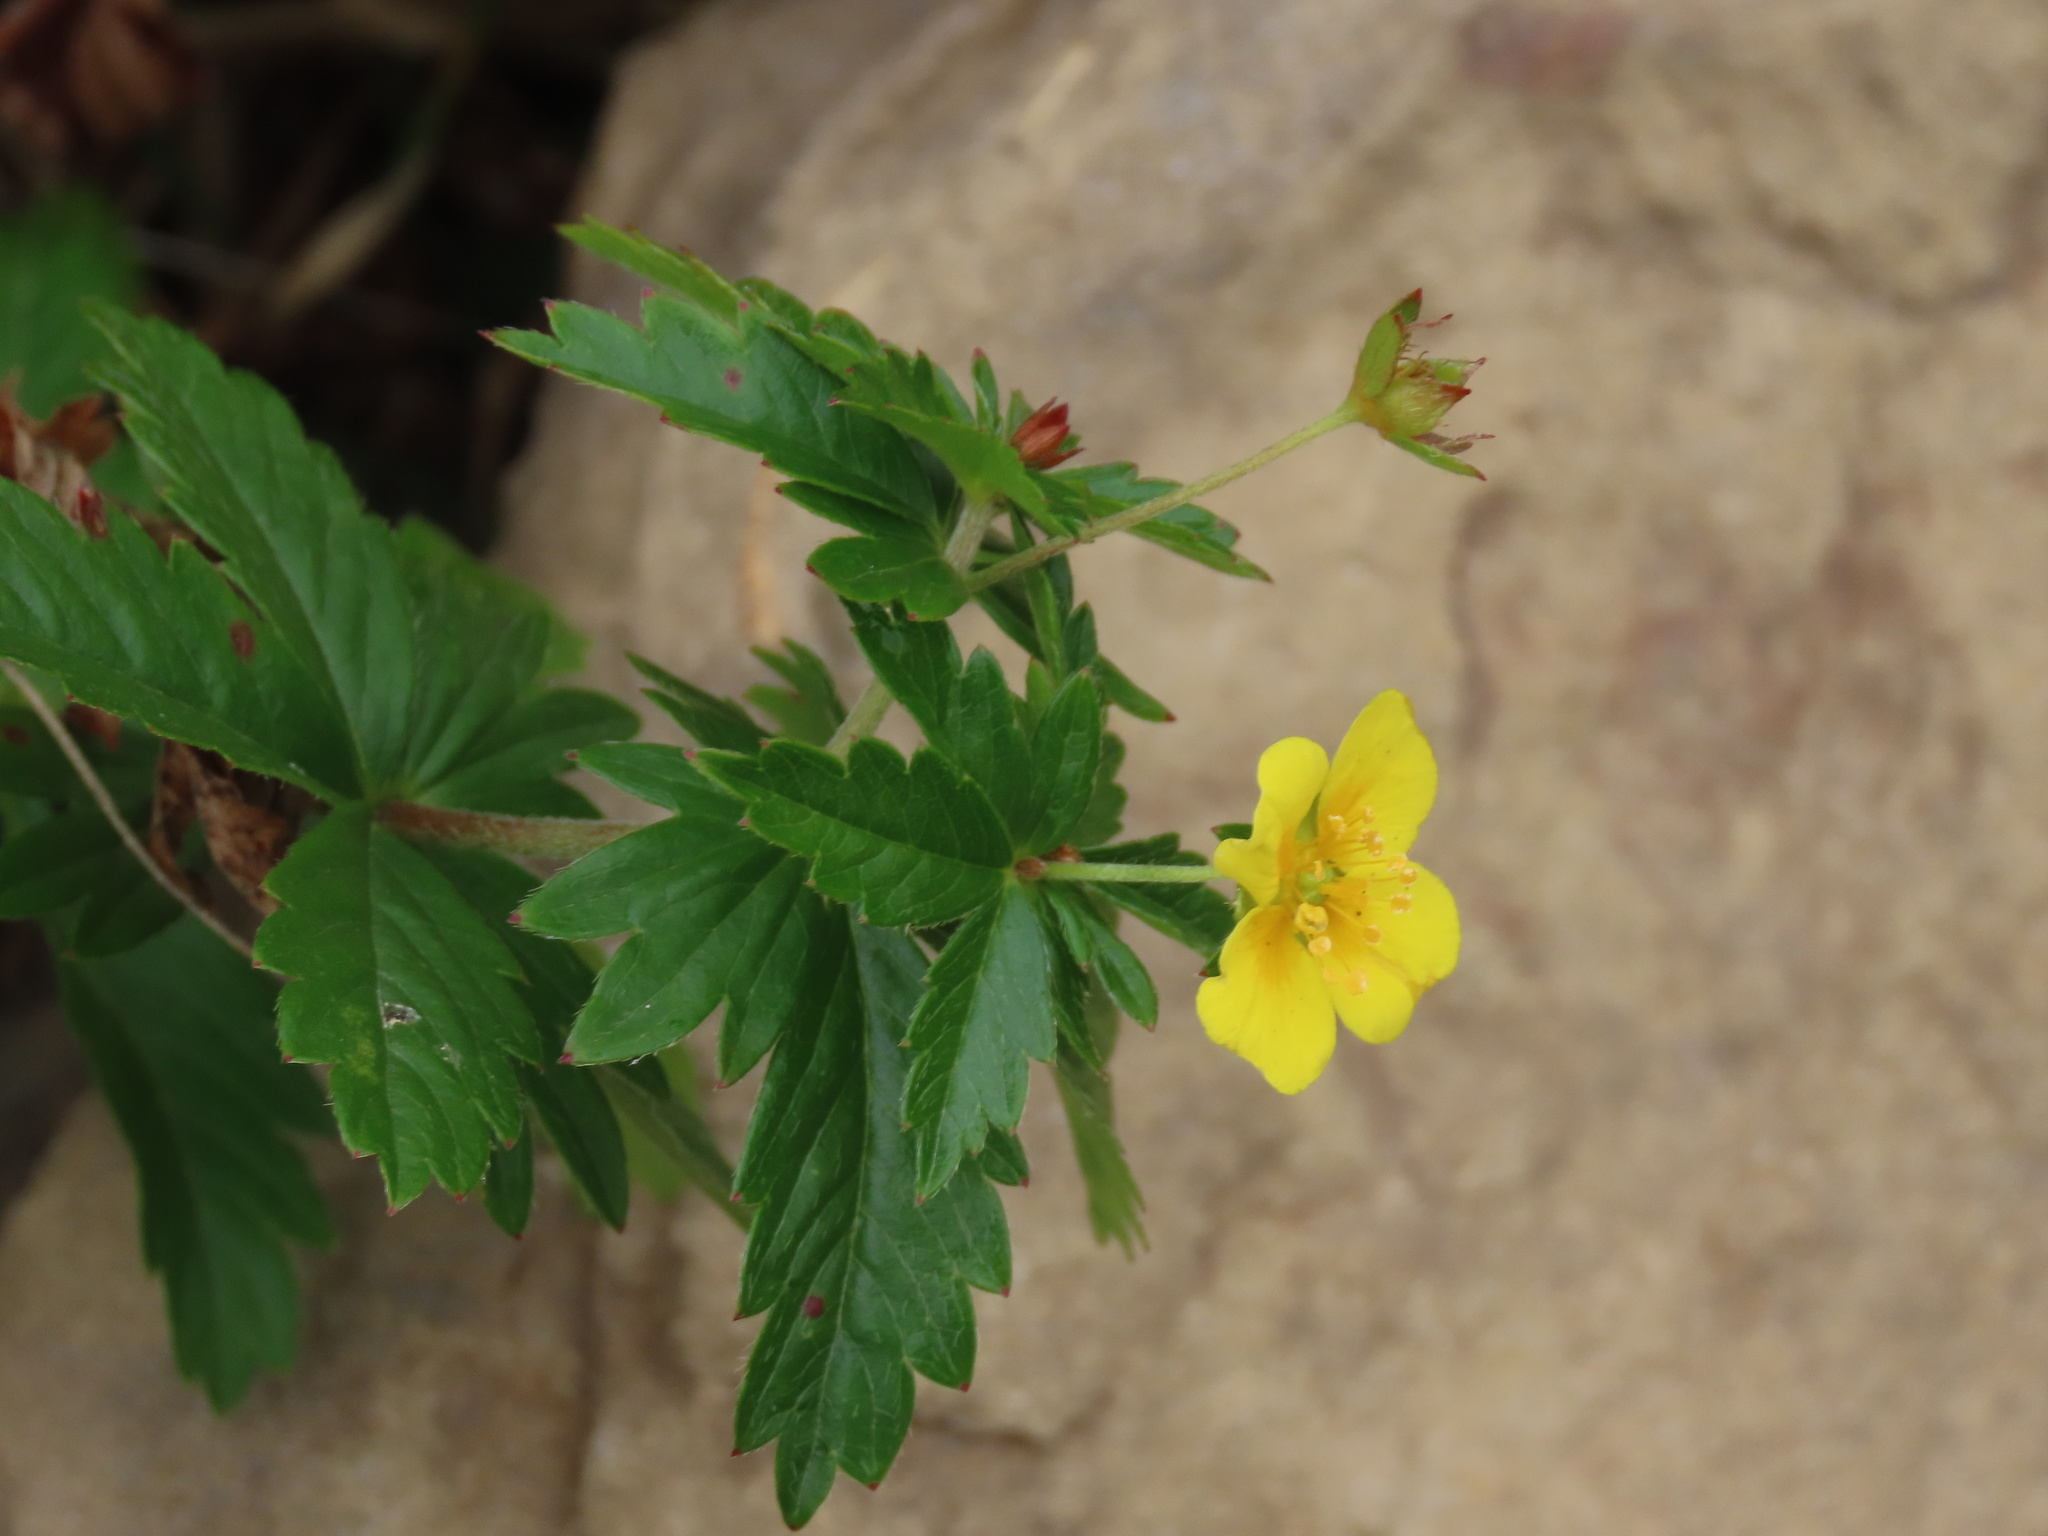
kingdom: Plantae
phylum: Tracheophyta
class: Magnoliopsida
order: Rosales
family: Rosaceae
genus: Potentilla
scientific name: Potentilla erecta
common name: Tormentil
